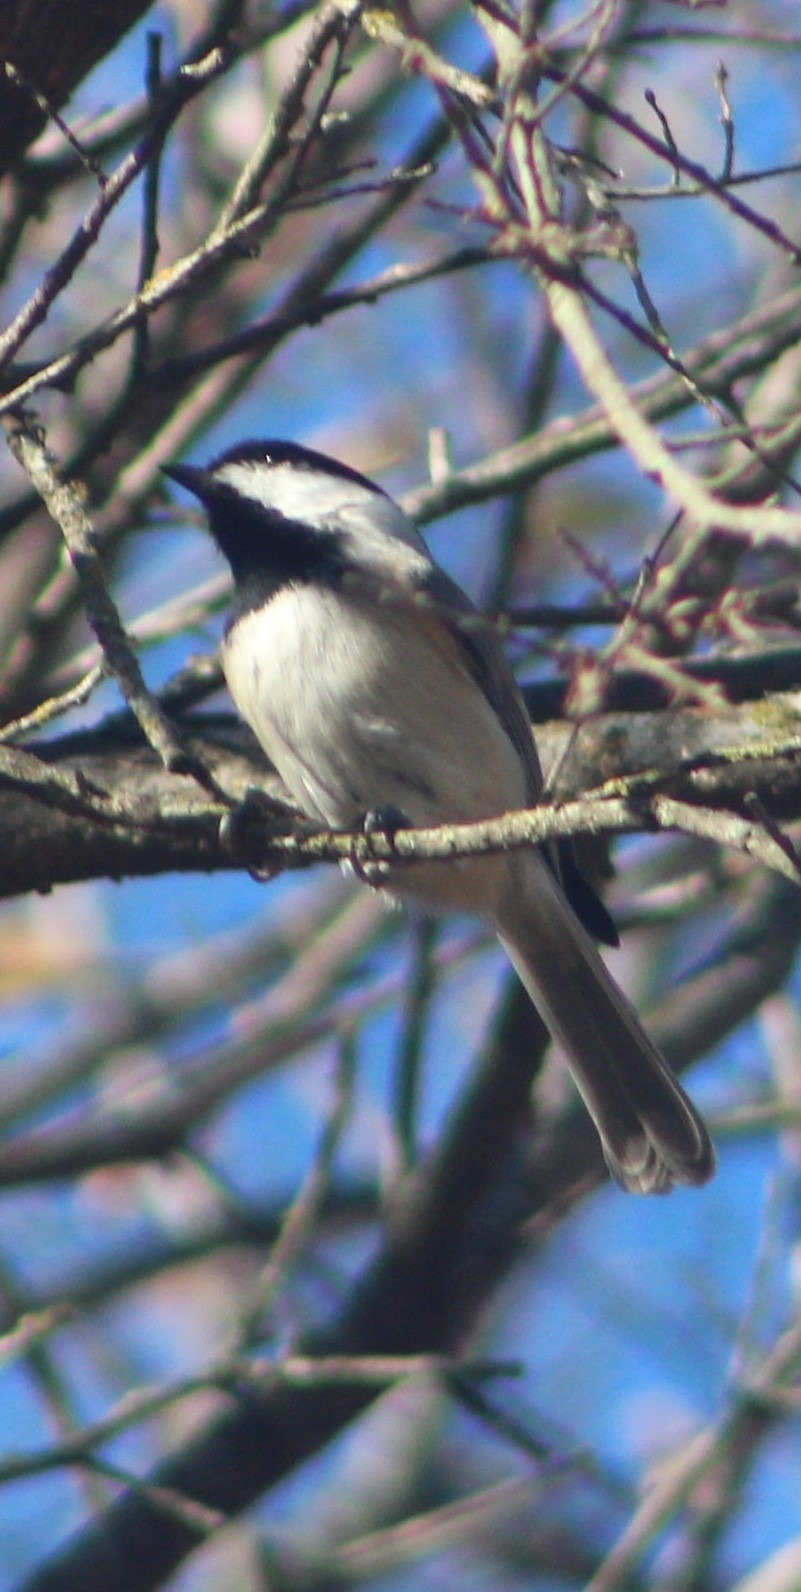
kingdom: Animalia
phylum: Chordata
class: Aves
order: Passeriformes
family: Paridae
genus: Poecile
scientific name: Poecile carolinensis
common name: Carolina chickadee
